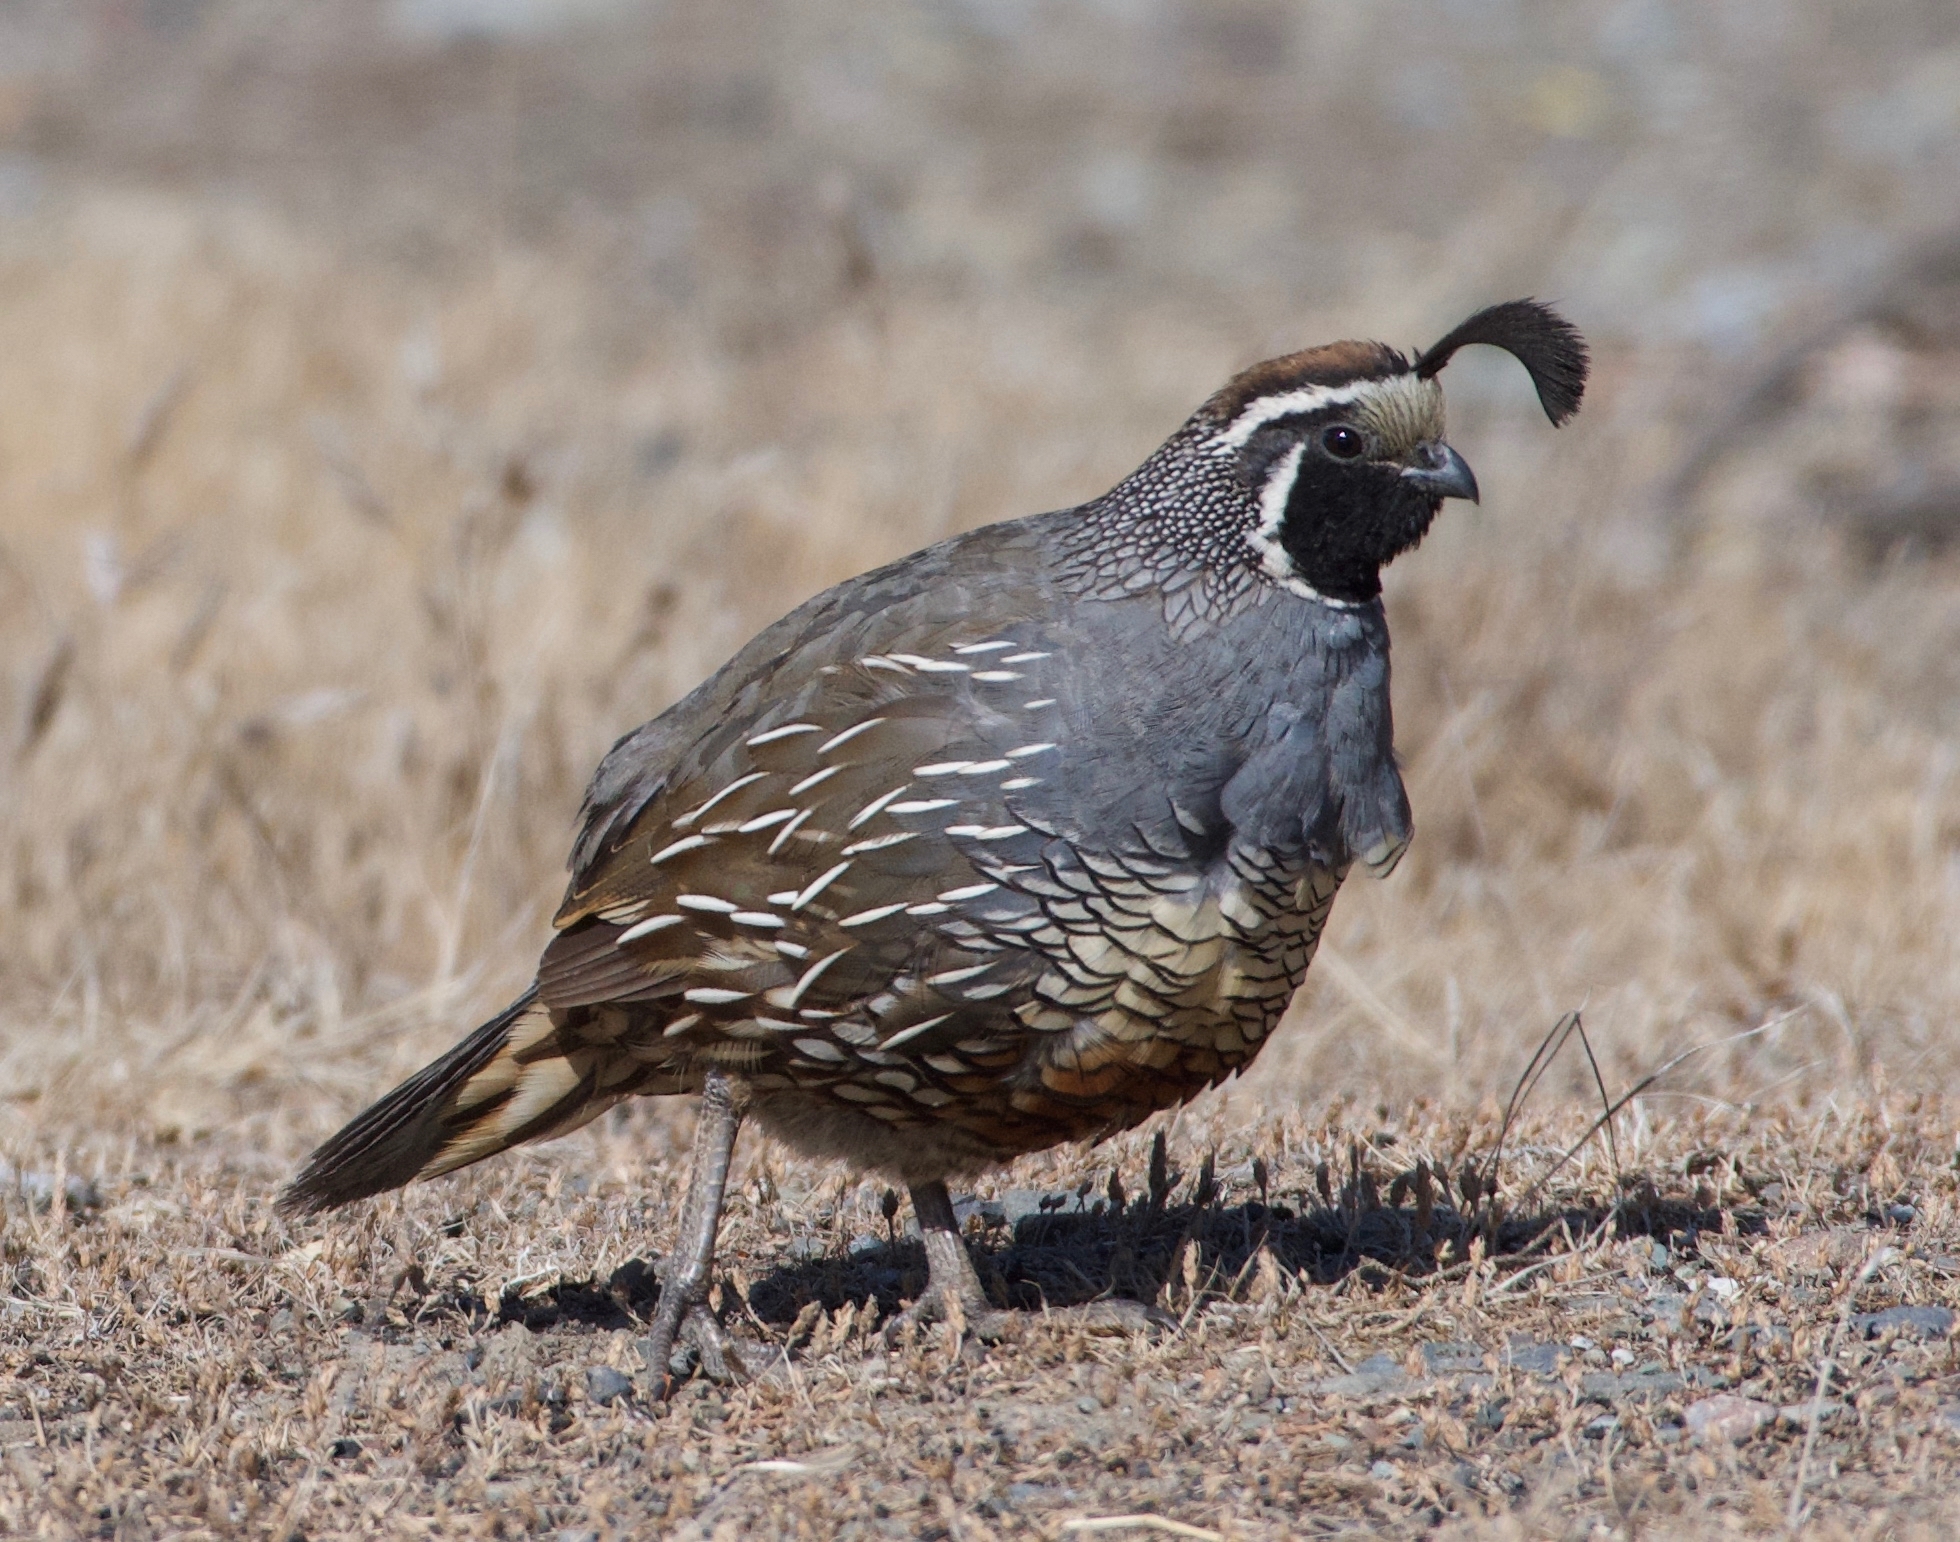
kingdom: Animalia
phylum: Chordata
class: Aves
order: Galliformes
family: Odontophoridae
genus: Callipepla
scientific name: Callipepla californica
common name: California quail
